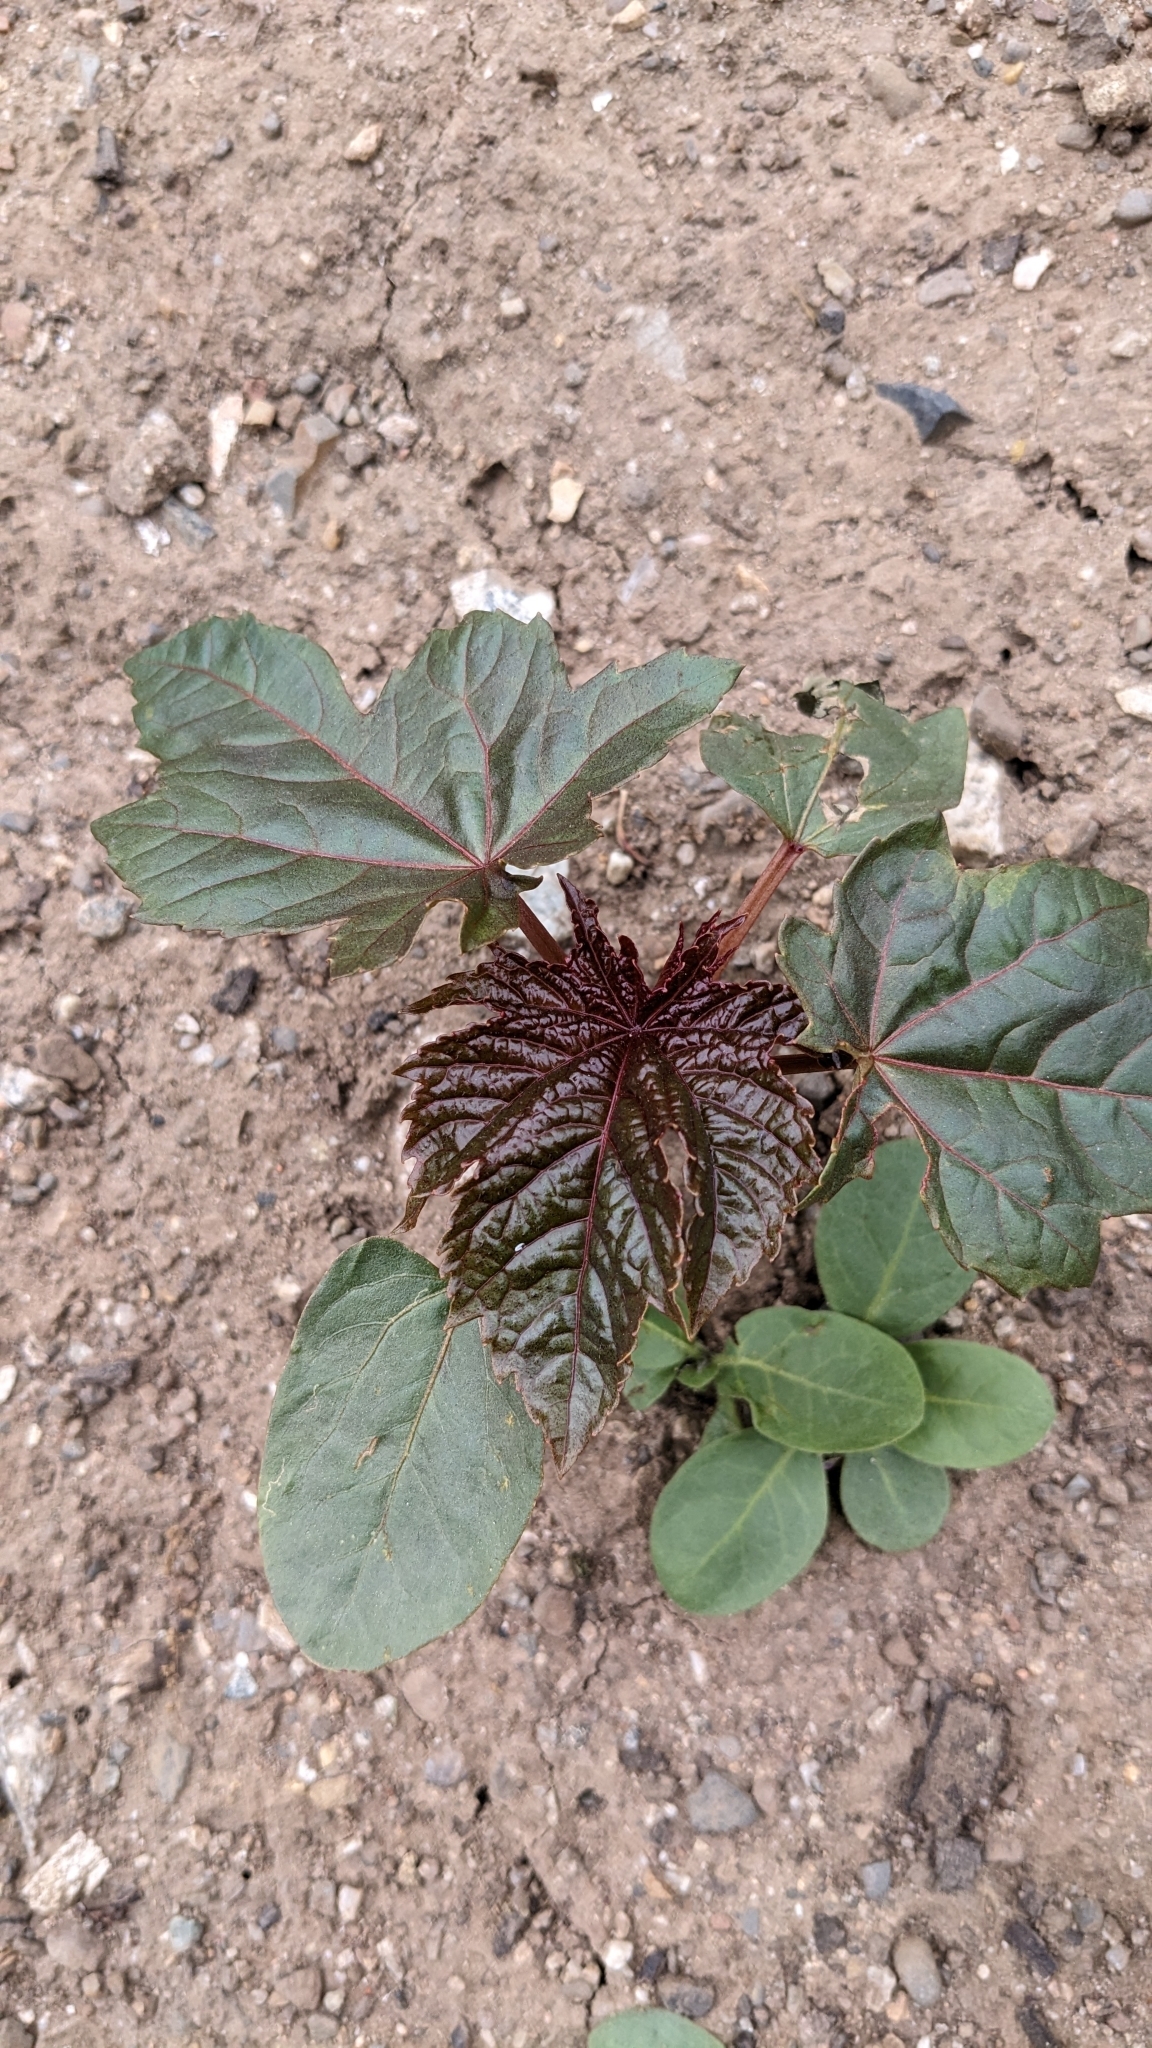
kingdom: Plantae
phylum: Tracheophyta
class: Magnoliopsida
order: Malpighiales
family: Euphorbiaceae
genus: Ricinus
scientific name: Ricinus communis
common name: Castor-oil-plant
